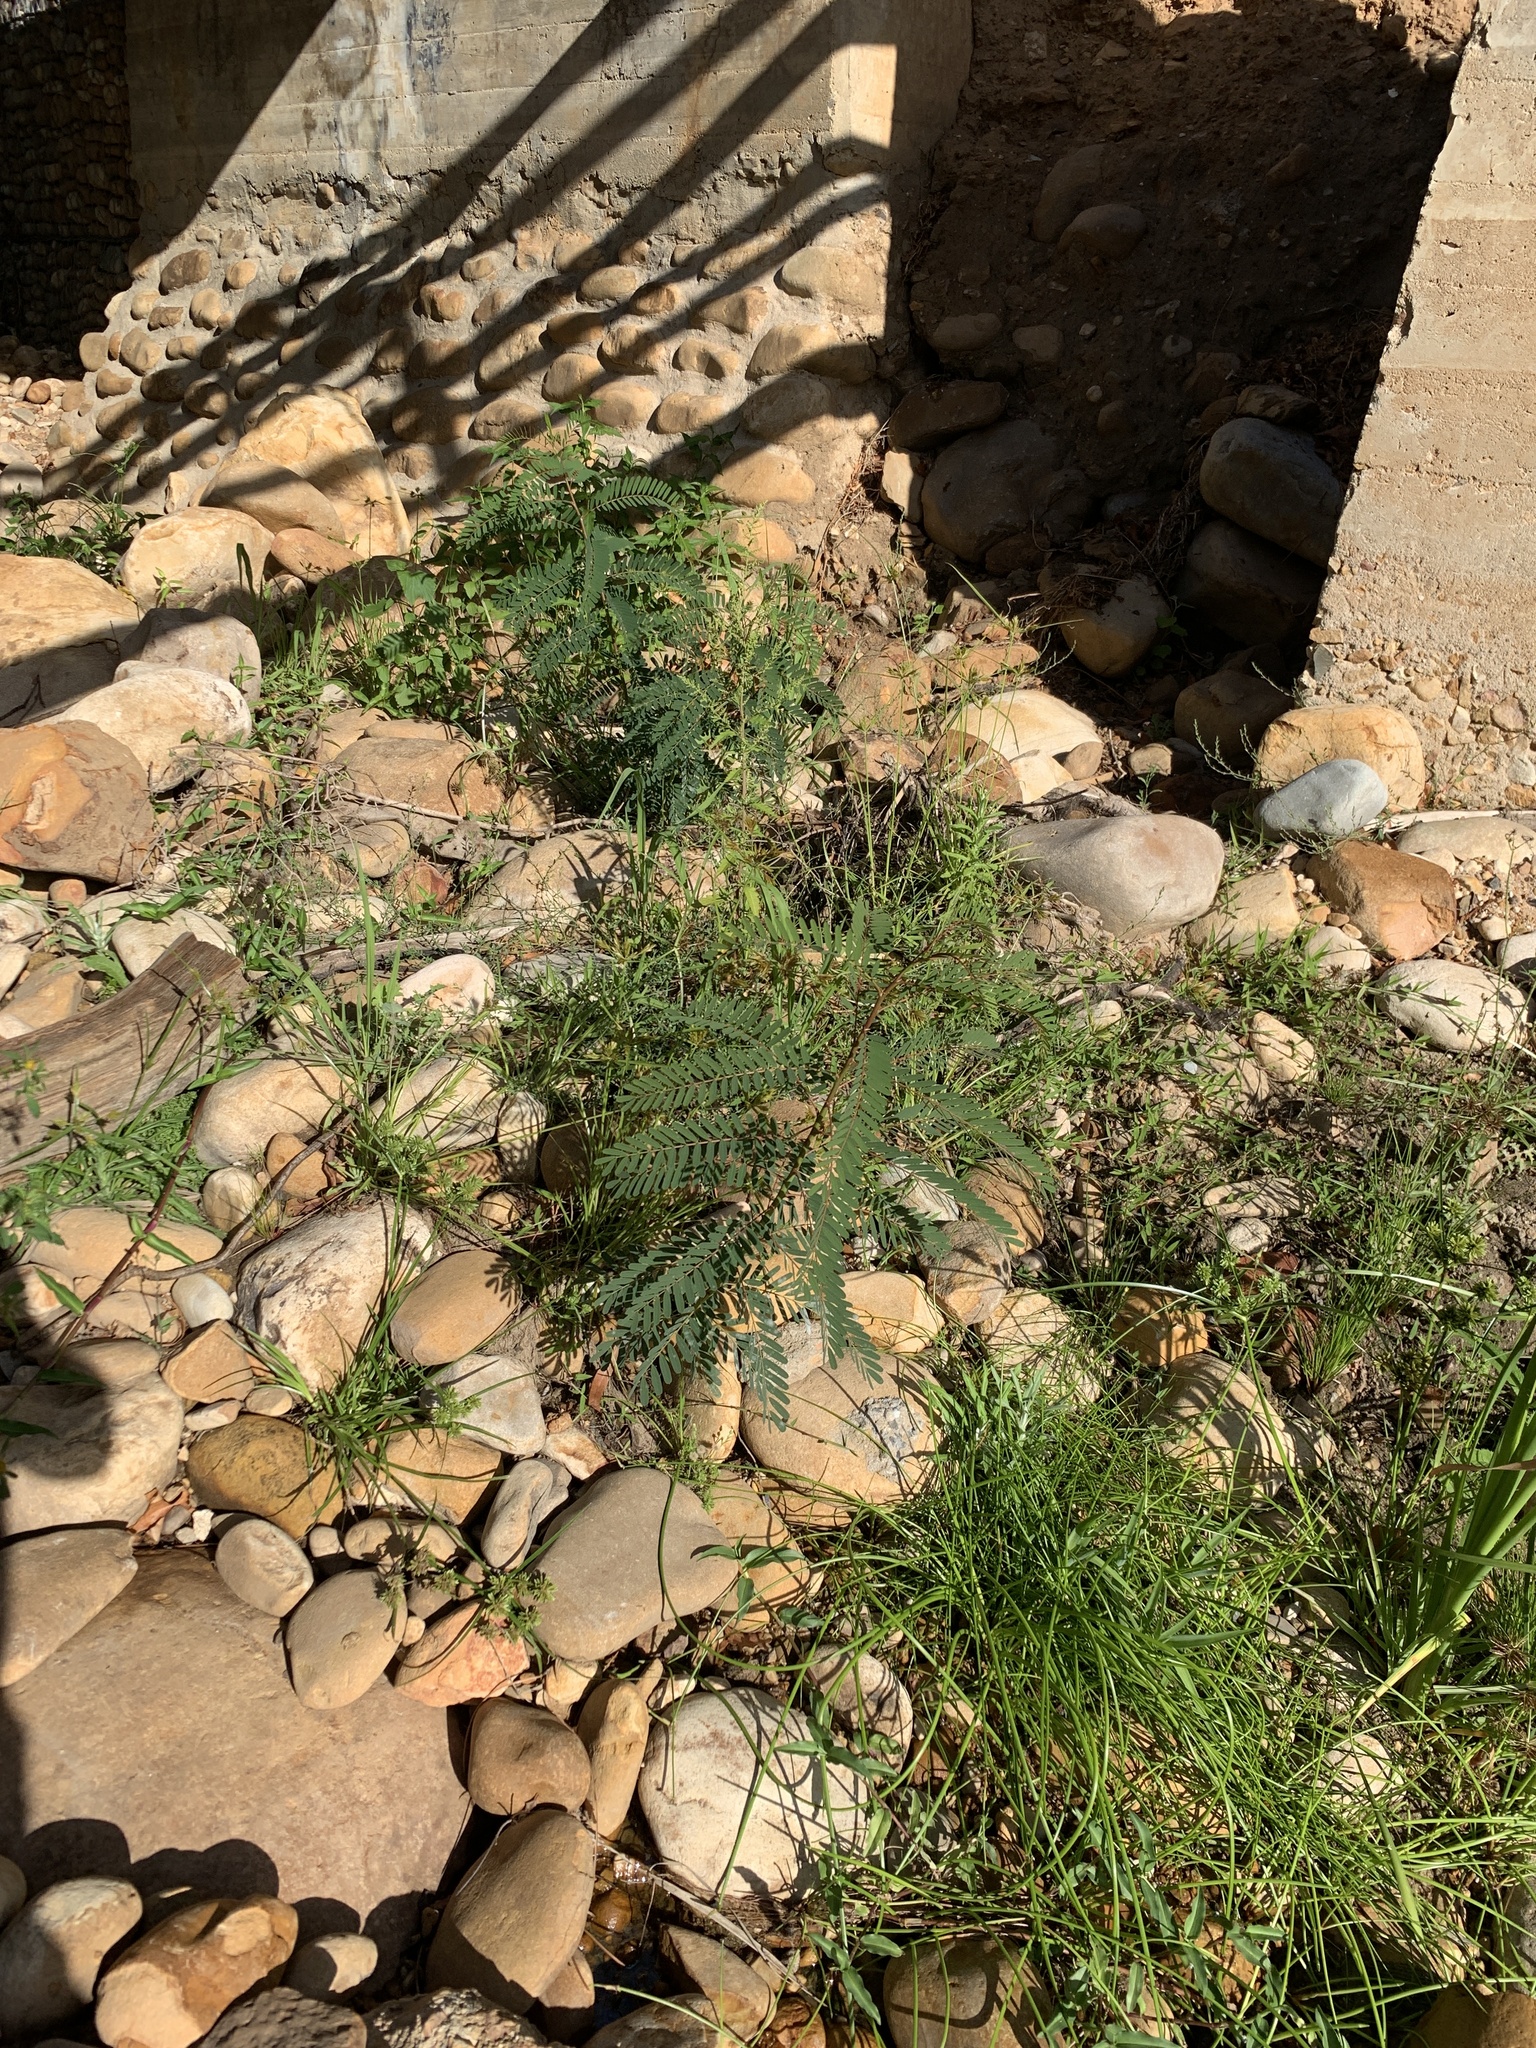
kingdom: Plantae
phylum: Tracheophyta
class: Magnoliopsida
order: Fabales
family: Fabaceae
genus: Sesbania
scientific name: Sesbania punicea
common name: Rattlebox
